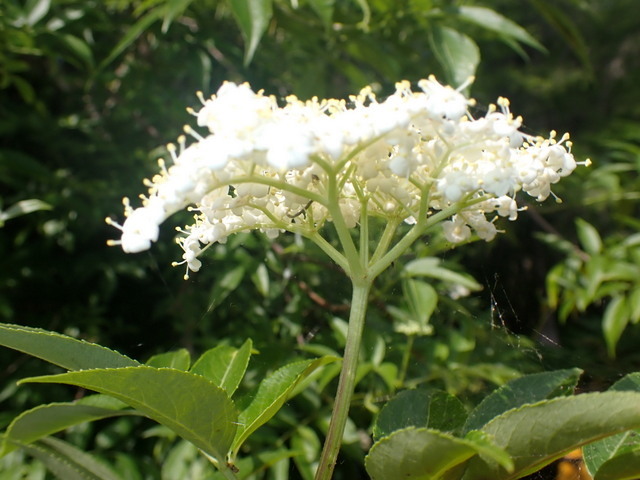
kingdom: Plantae
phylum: Tracheophyta
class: Magnoliopsida
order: Dipsacales
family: Viburnaceae
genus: Sambucus
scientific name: Sambucus canadensis
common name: American elder
